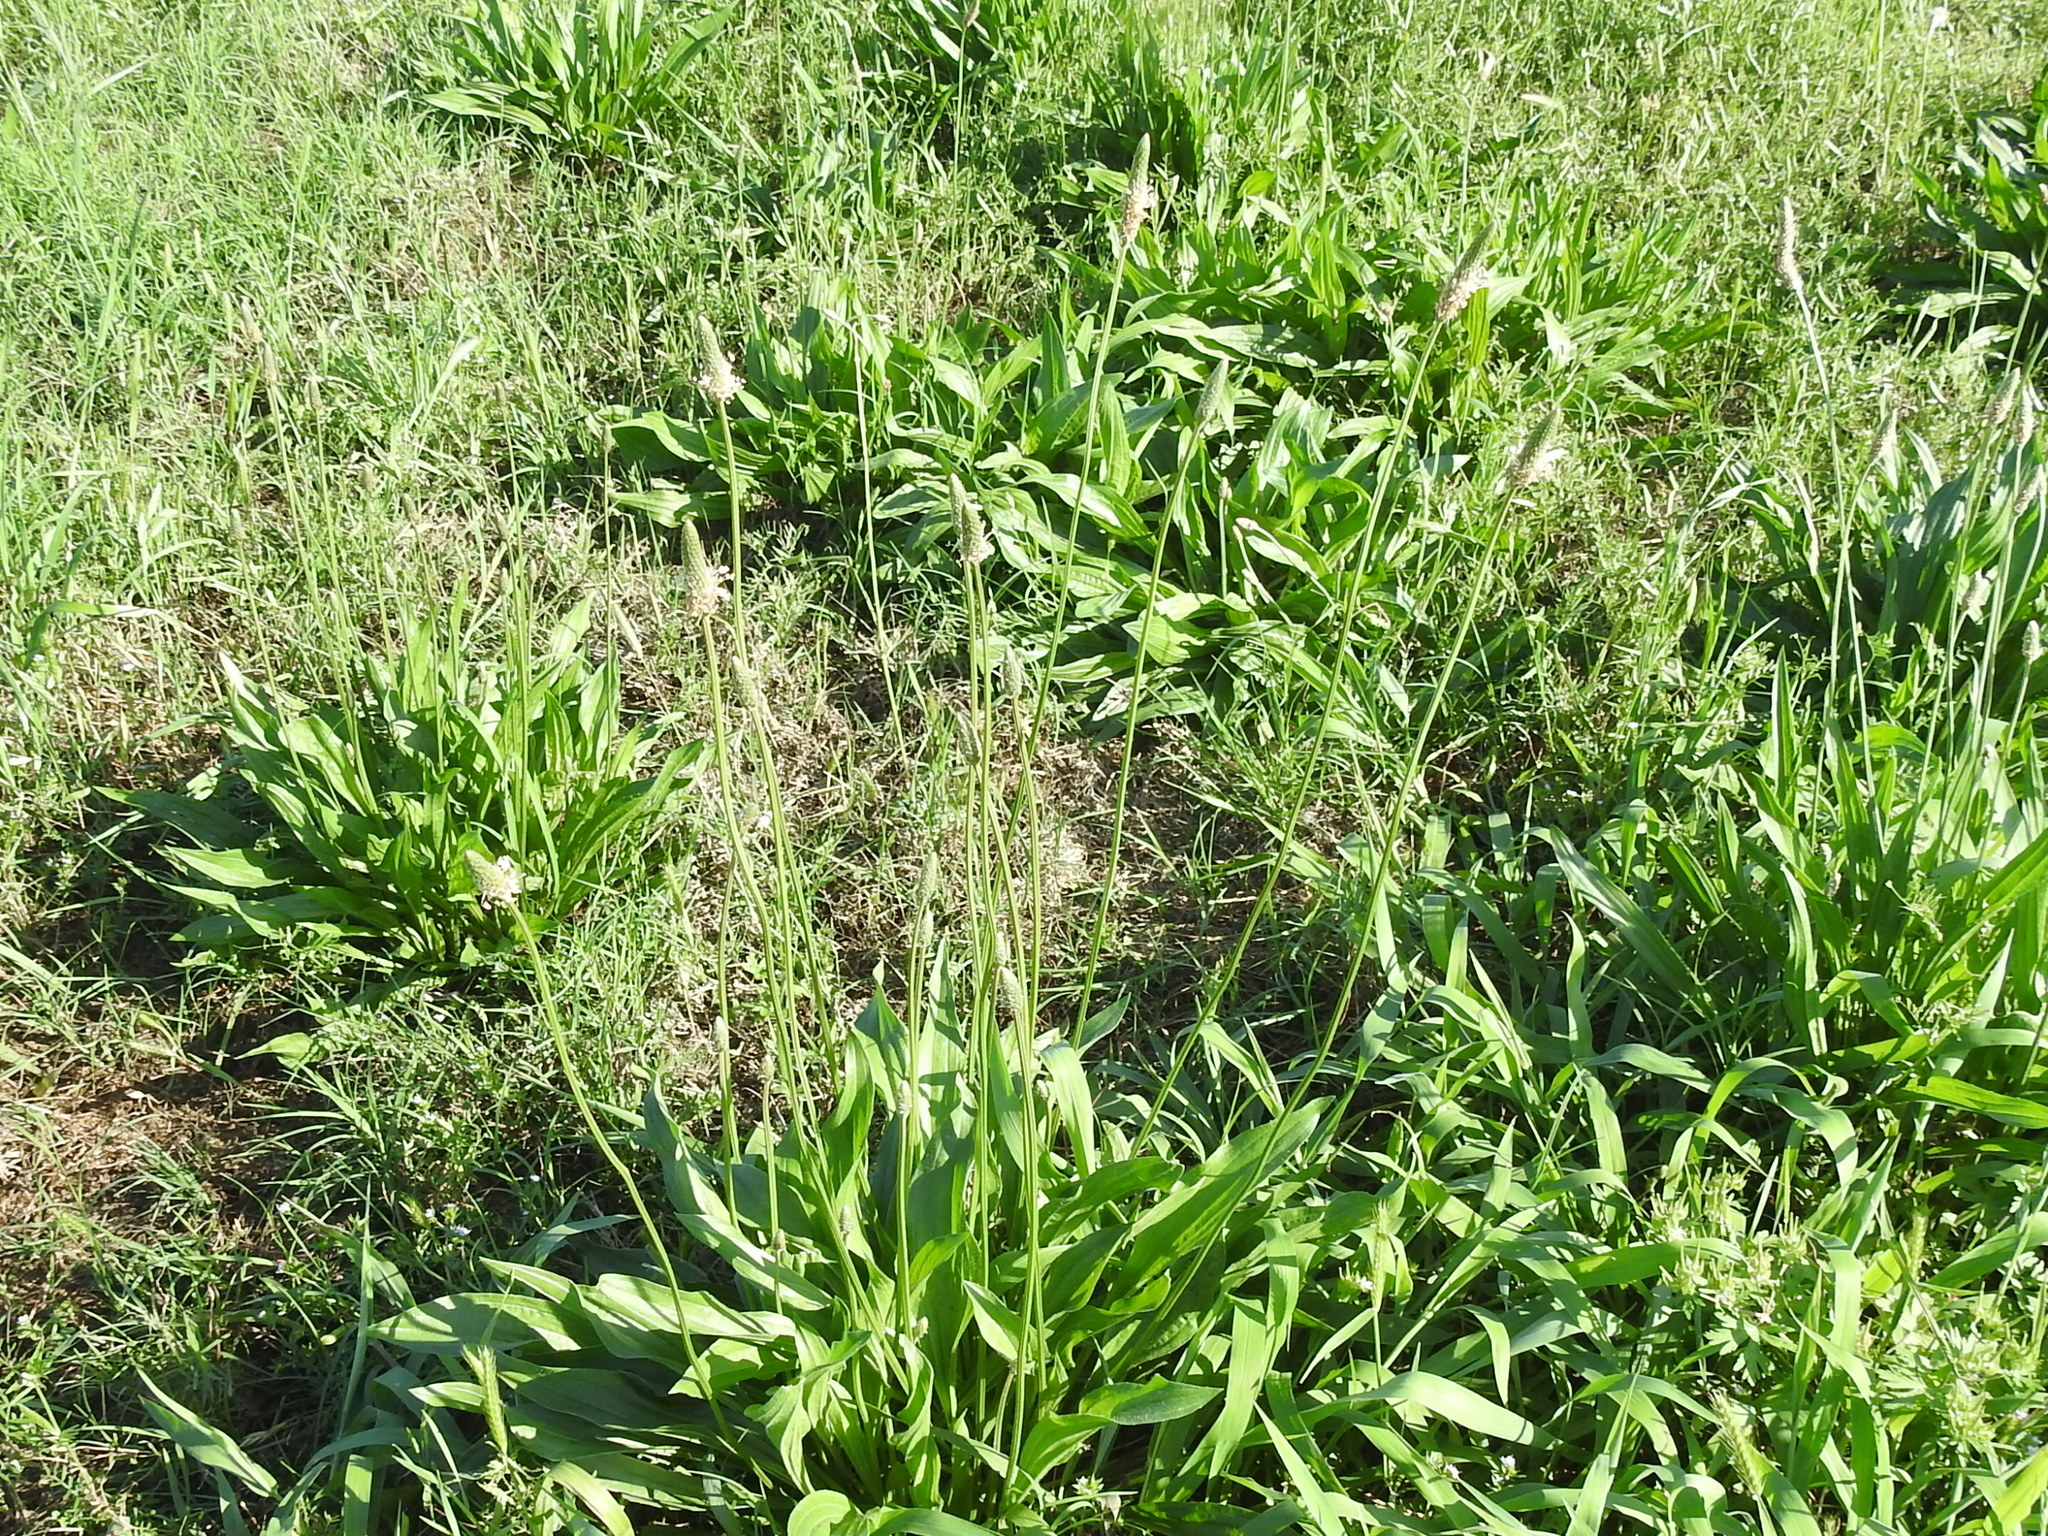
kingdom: Plantae
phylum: Tracheophyta
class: Magnoliopsida
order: Lamiales
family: Plantaginaceae
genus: Plantago
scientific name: Plantago lanceolata
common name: Ribwort plantain
